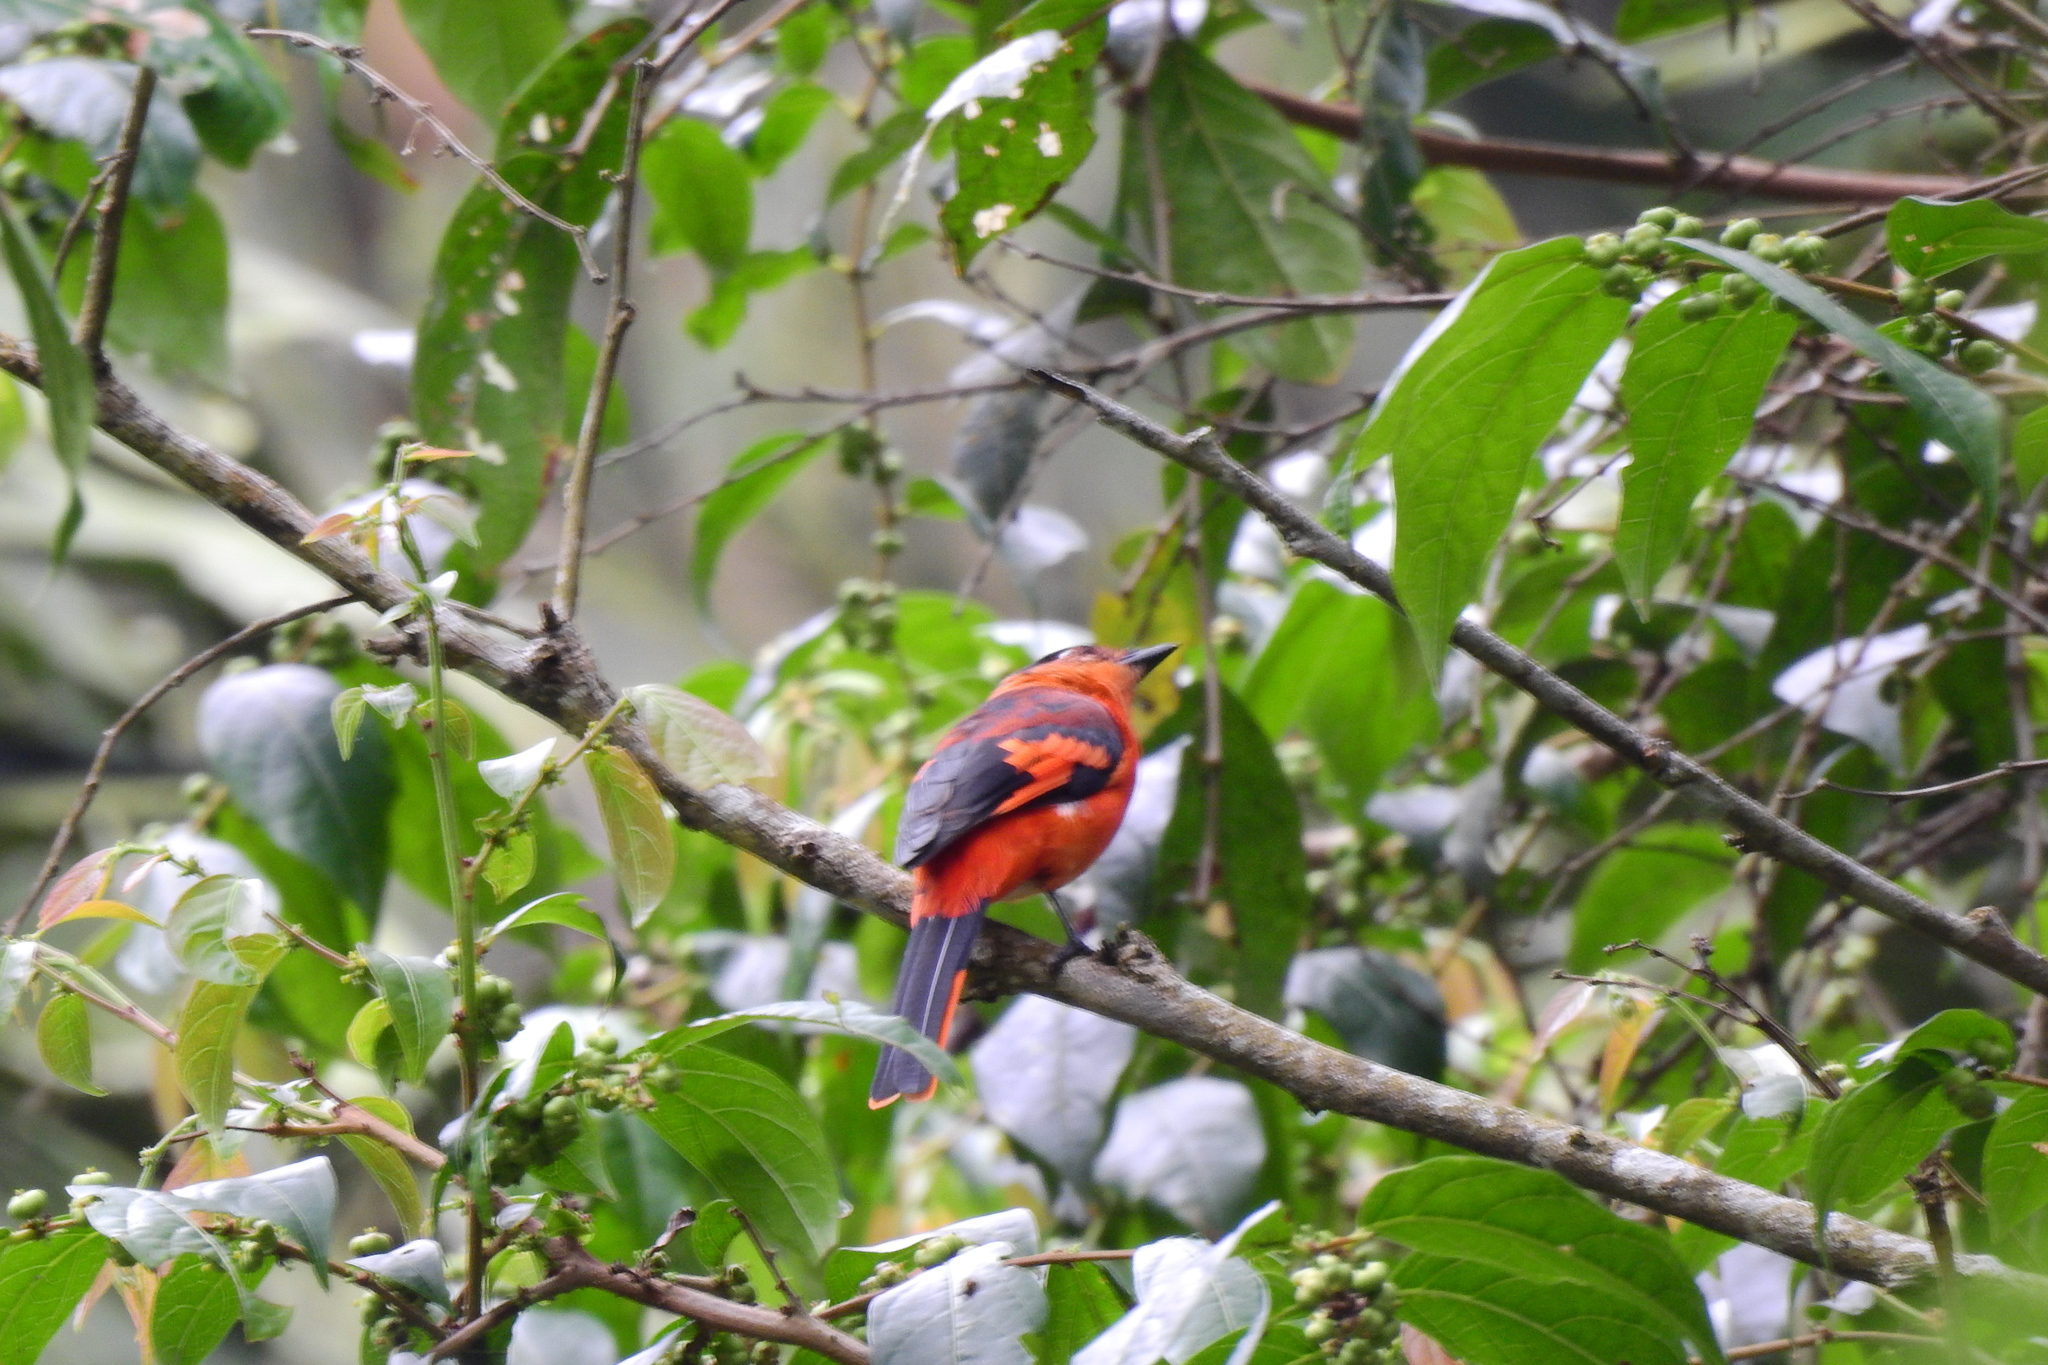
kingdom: Animalia
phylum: Chordata
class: Aves
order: Passeriformes
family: Campephagidae
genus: Pericrocotus
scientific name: Pericrocotus miniatus
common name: Sunda minivet
